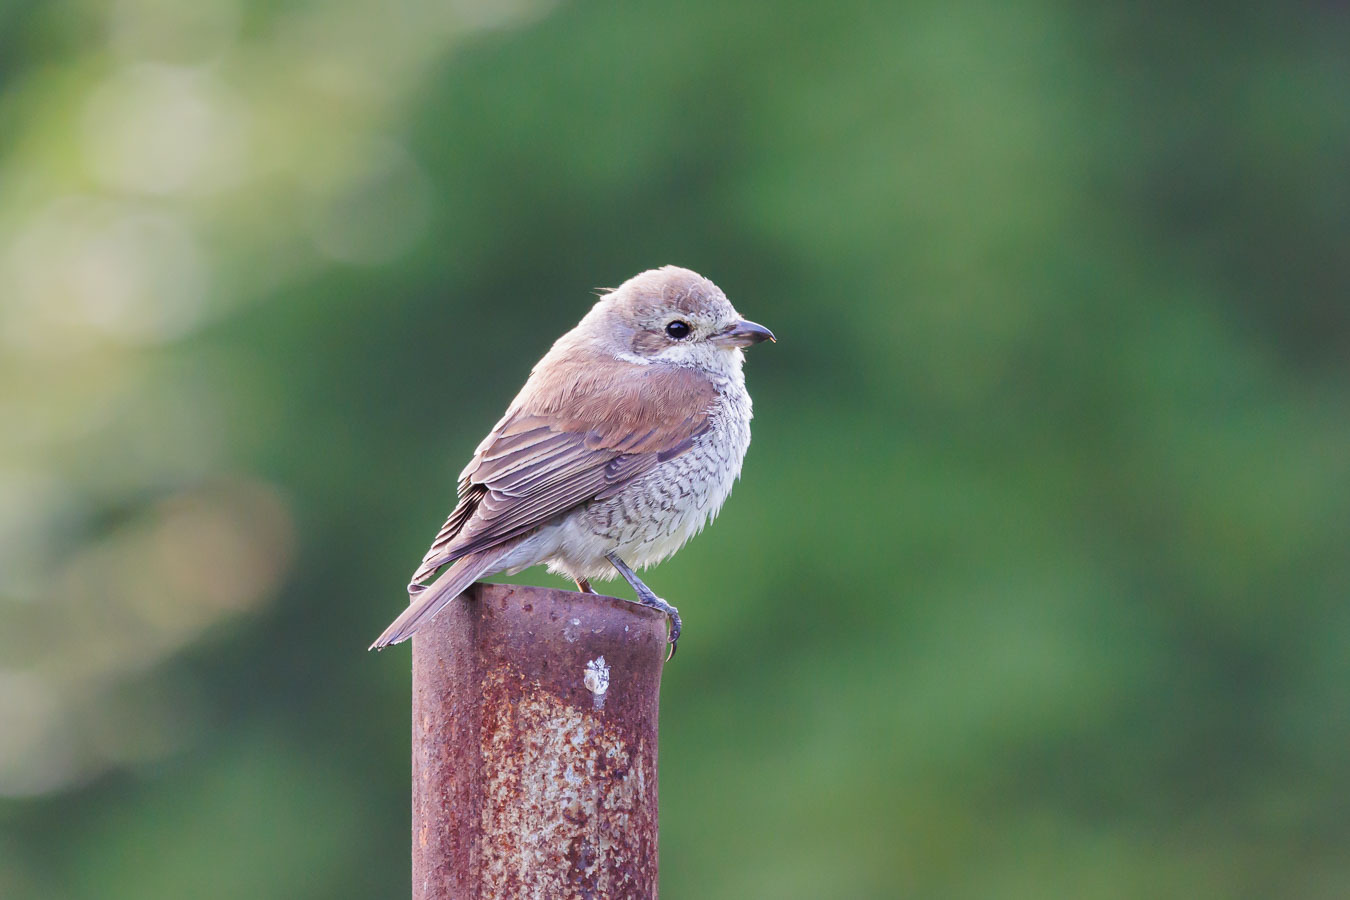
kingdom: Animalia
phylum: Chordata
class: Aves
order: Passeriformes
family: Laniidae
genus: Lanius
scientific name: Lanius collurio
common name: Red-backed shrike
